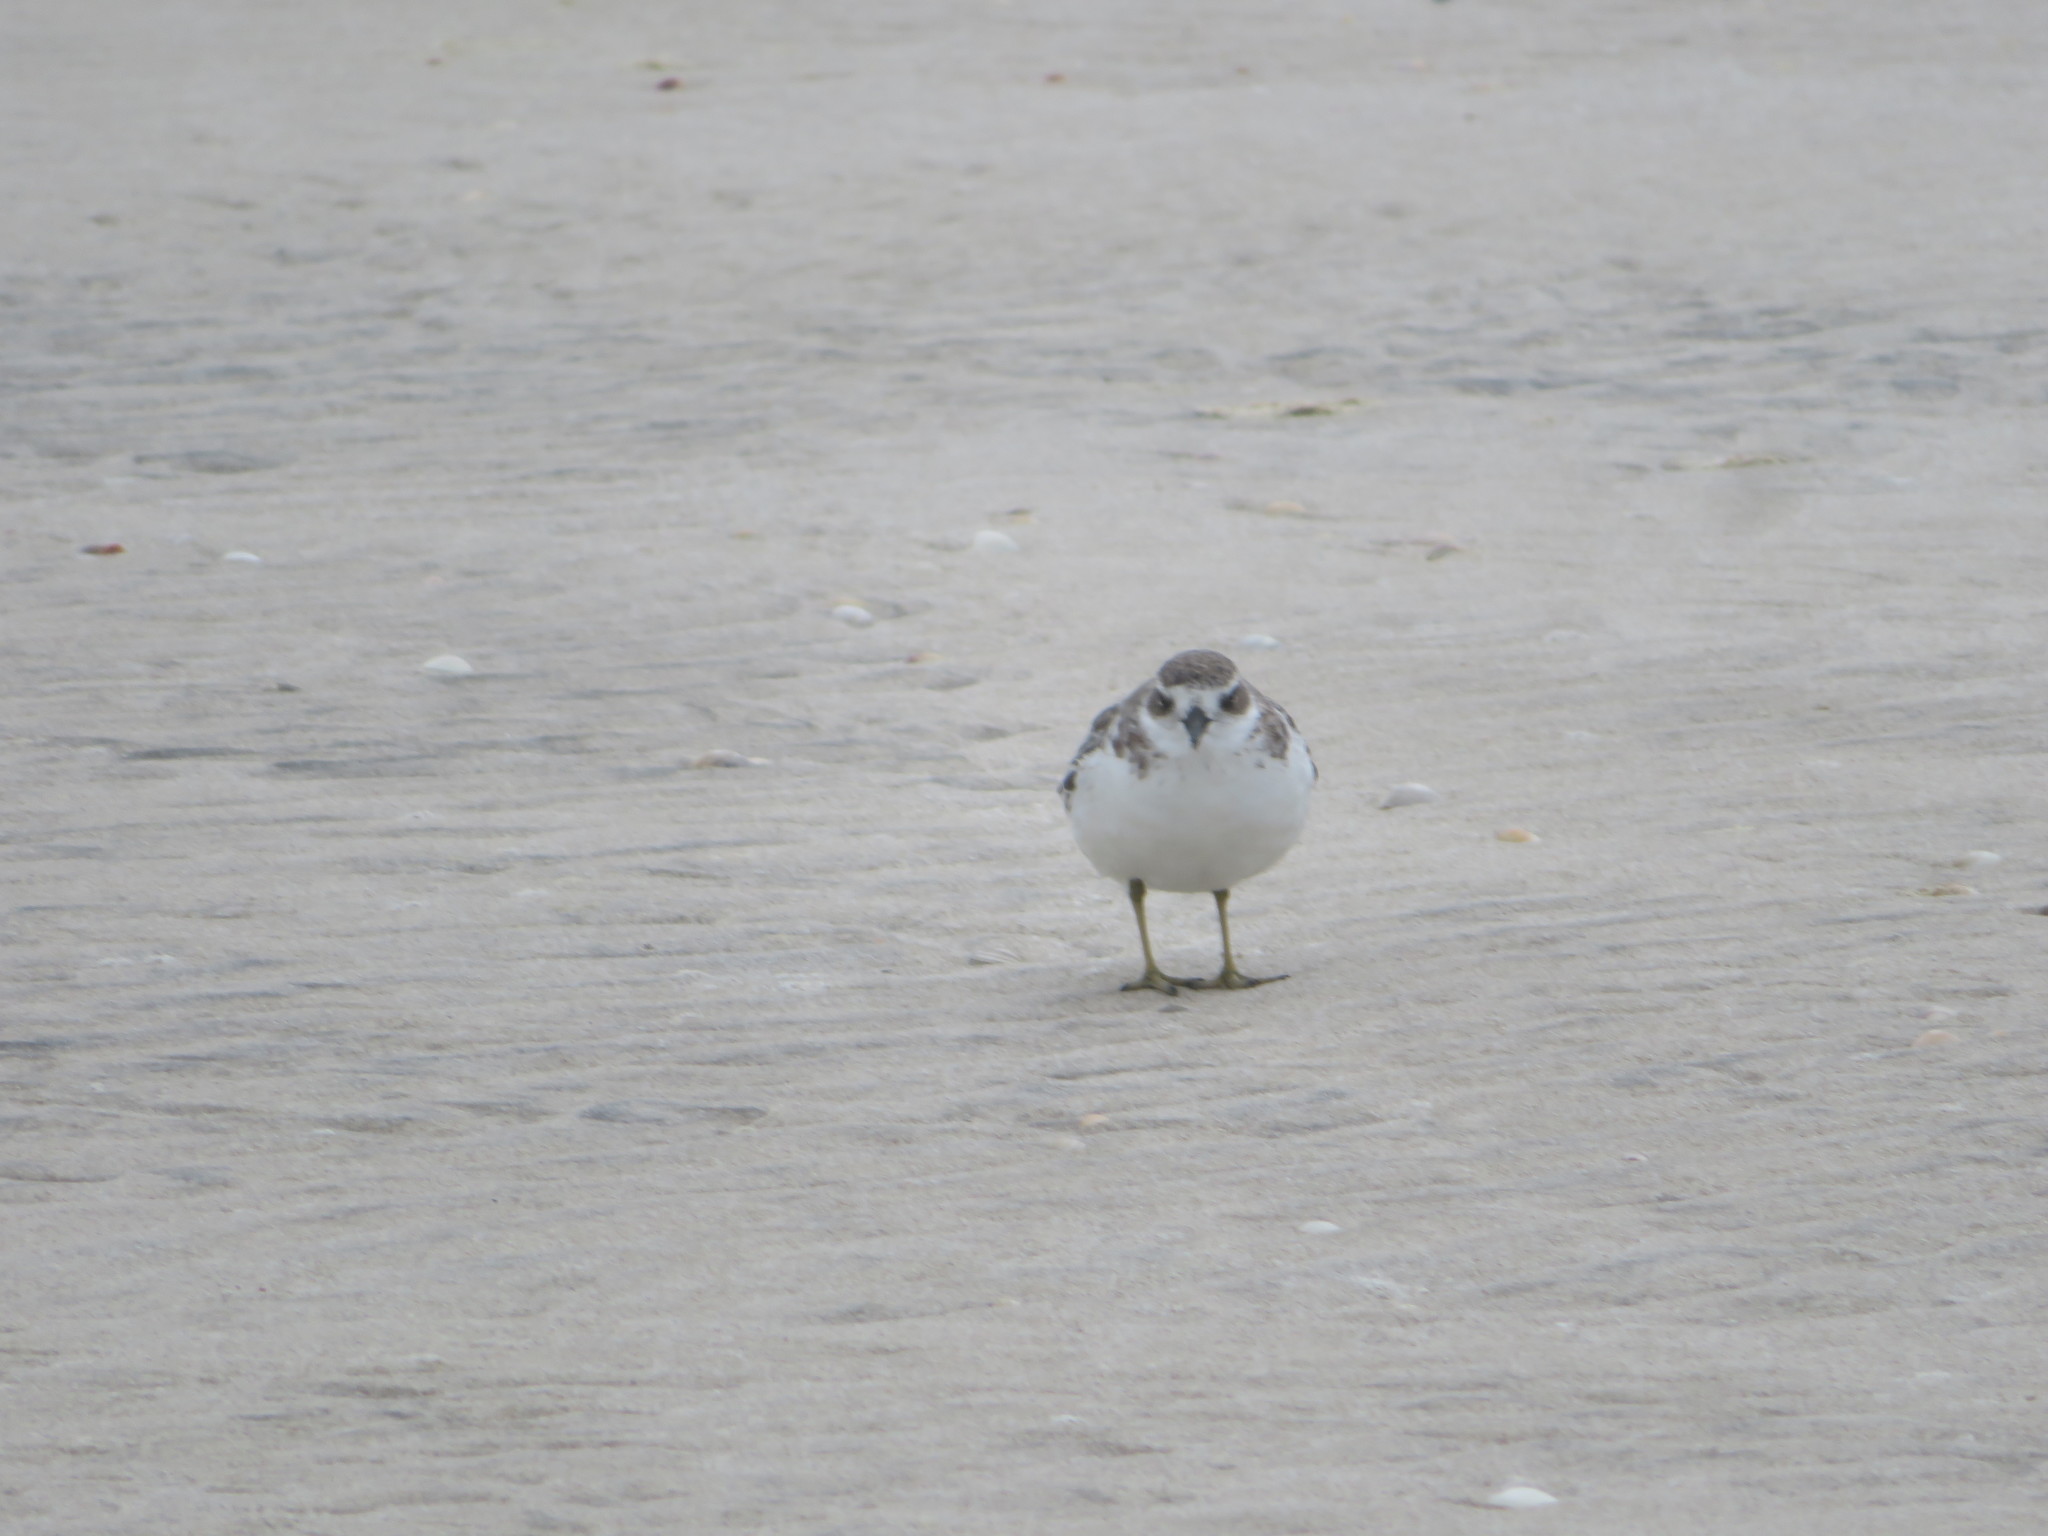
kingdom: Animalia
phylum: Chordata
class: Aves
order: Charadriiformes
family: Charadriidae
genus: Anarhynchus
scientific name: Anarhynchus
